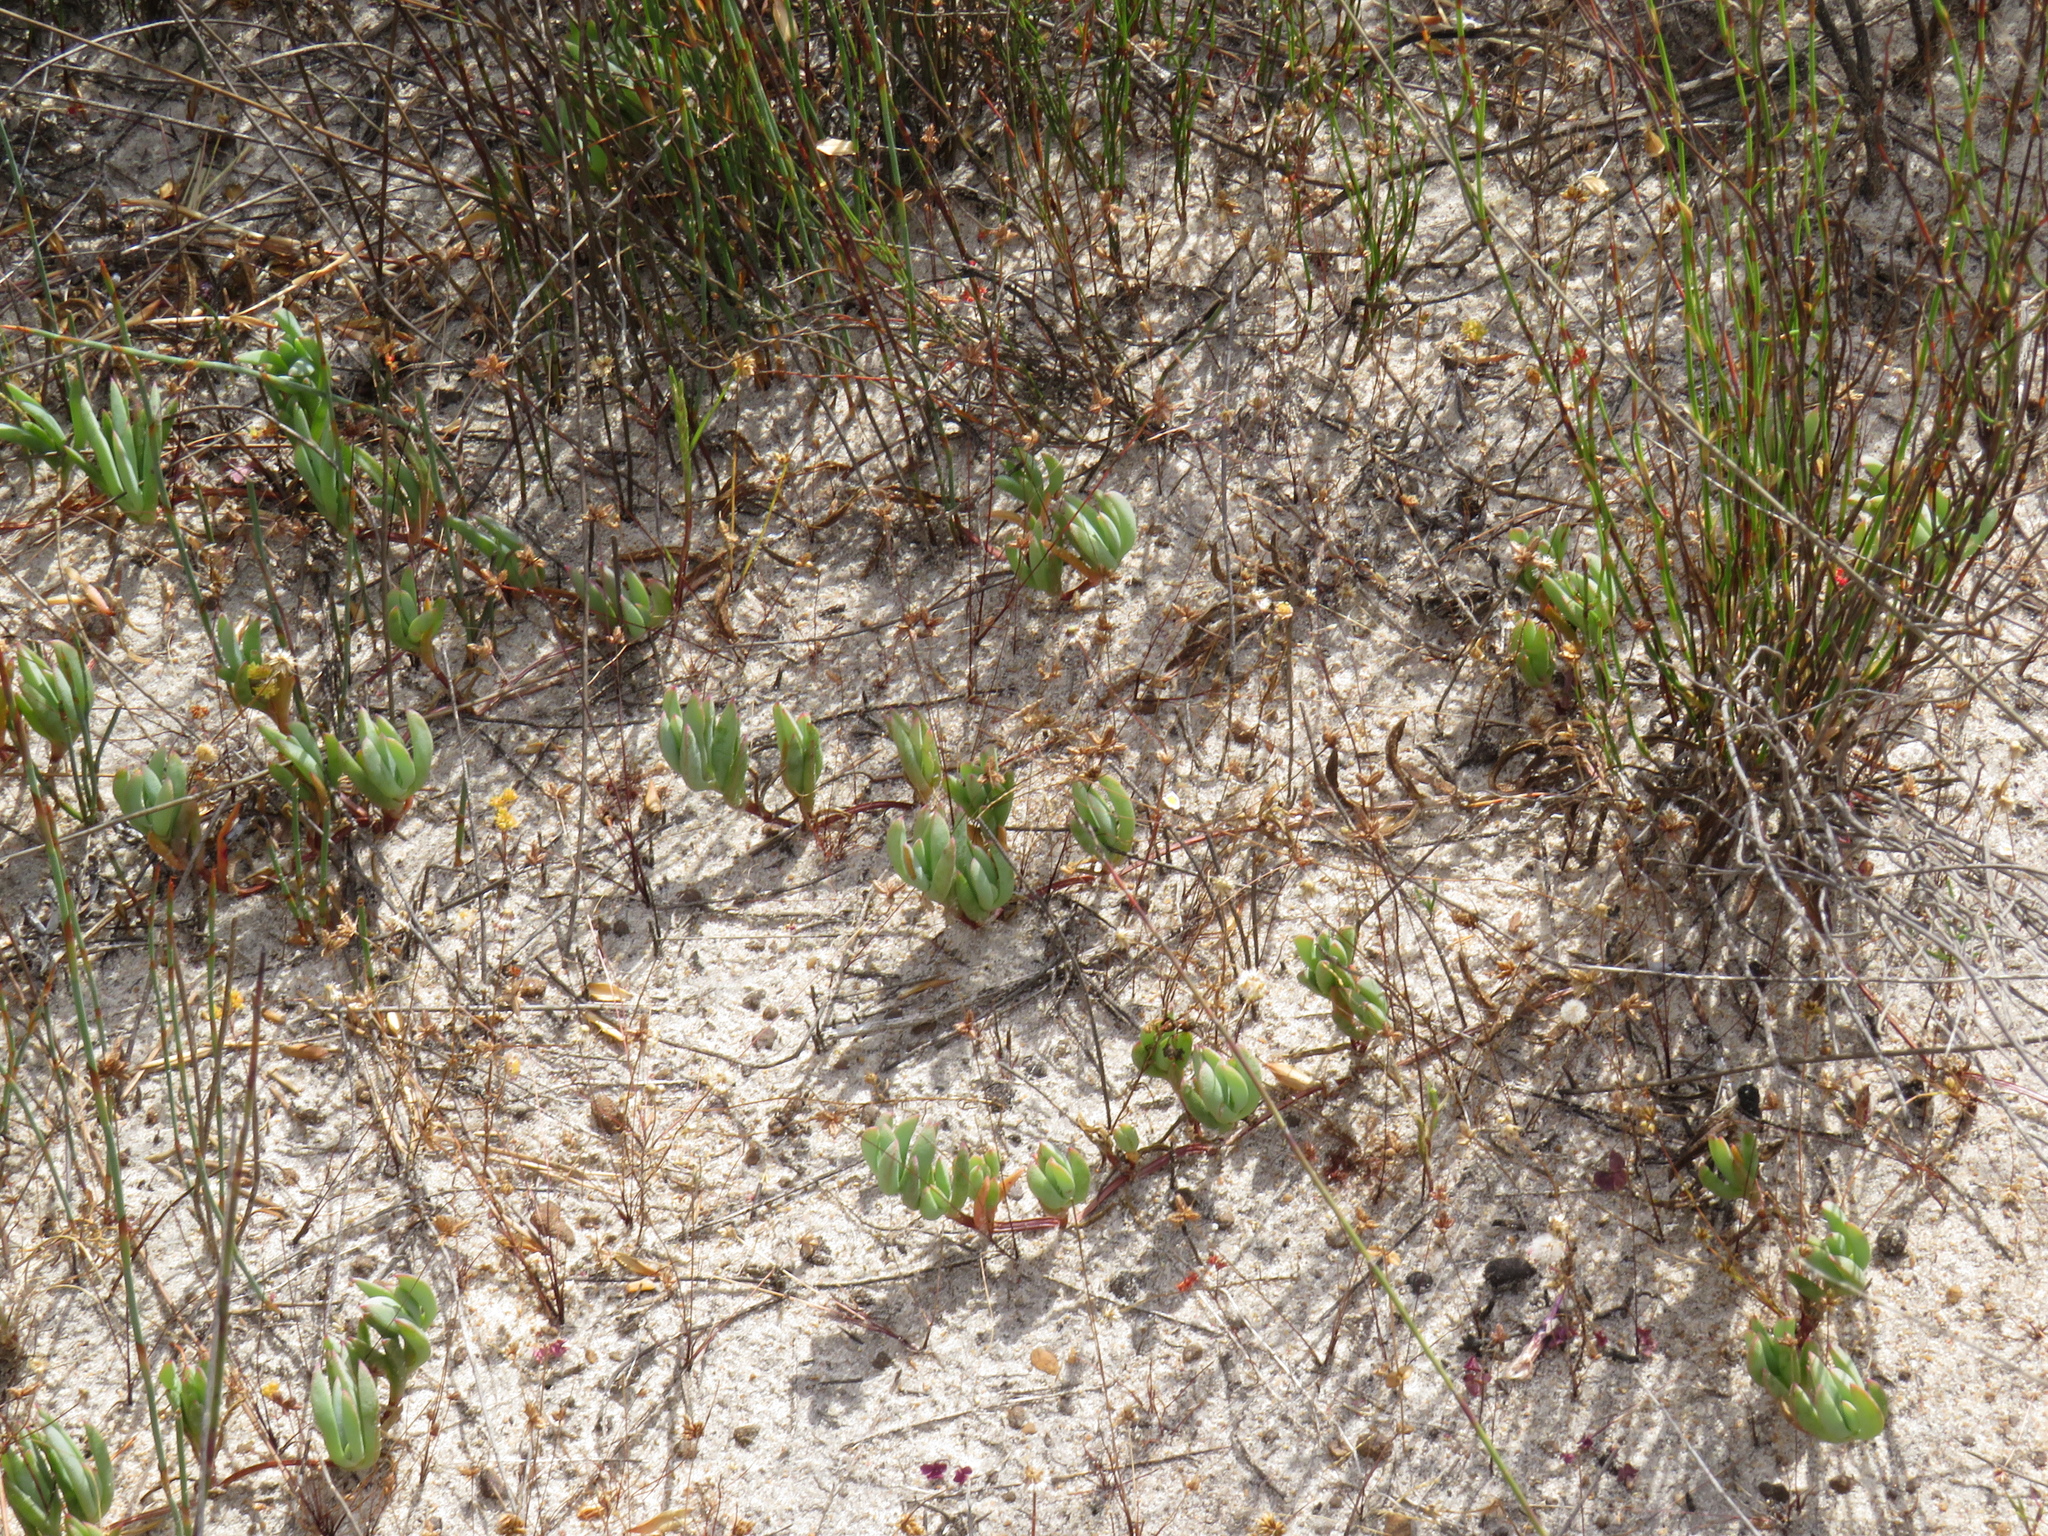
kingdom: Plantae
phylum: Tracheophyta
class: Magnoliopsida
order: Caryophyllales
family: Aizoaceae
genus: Lampranthus
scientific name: Lampranthus reptans
